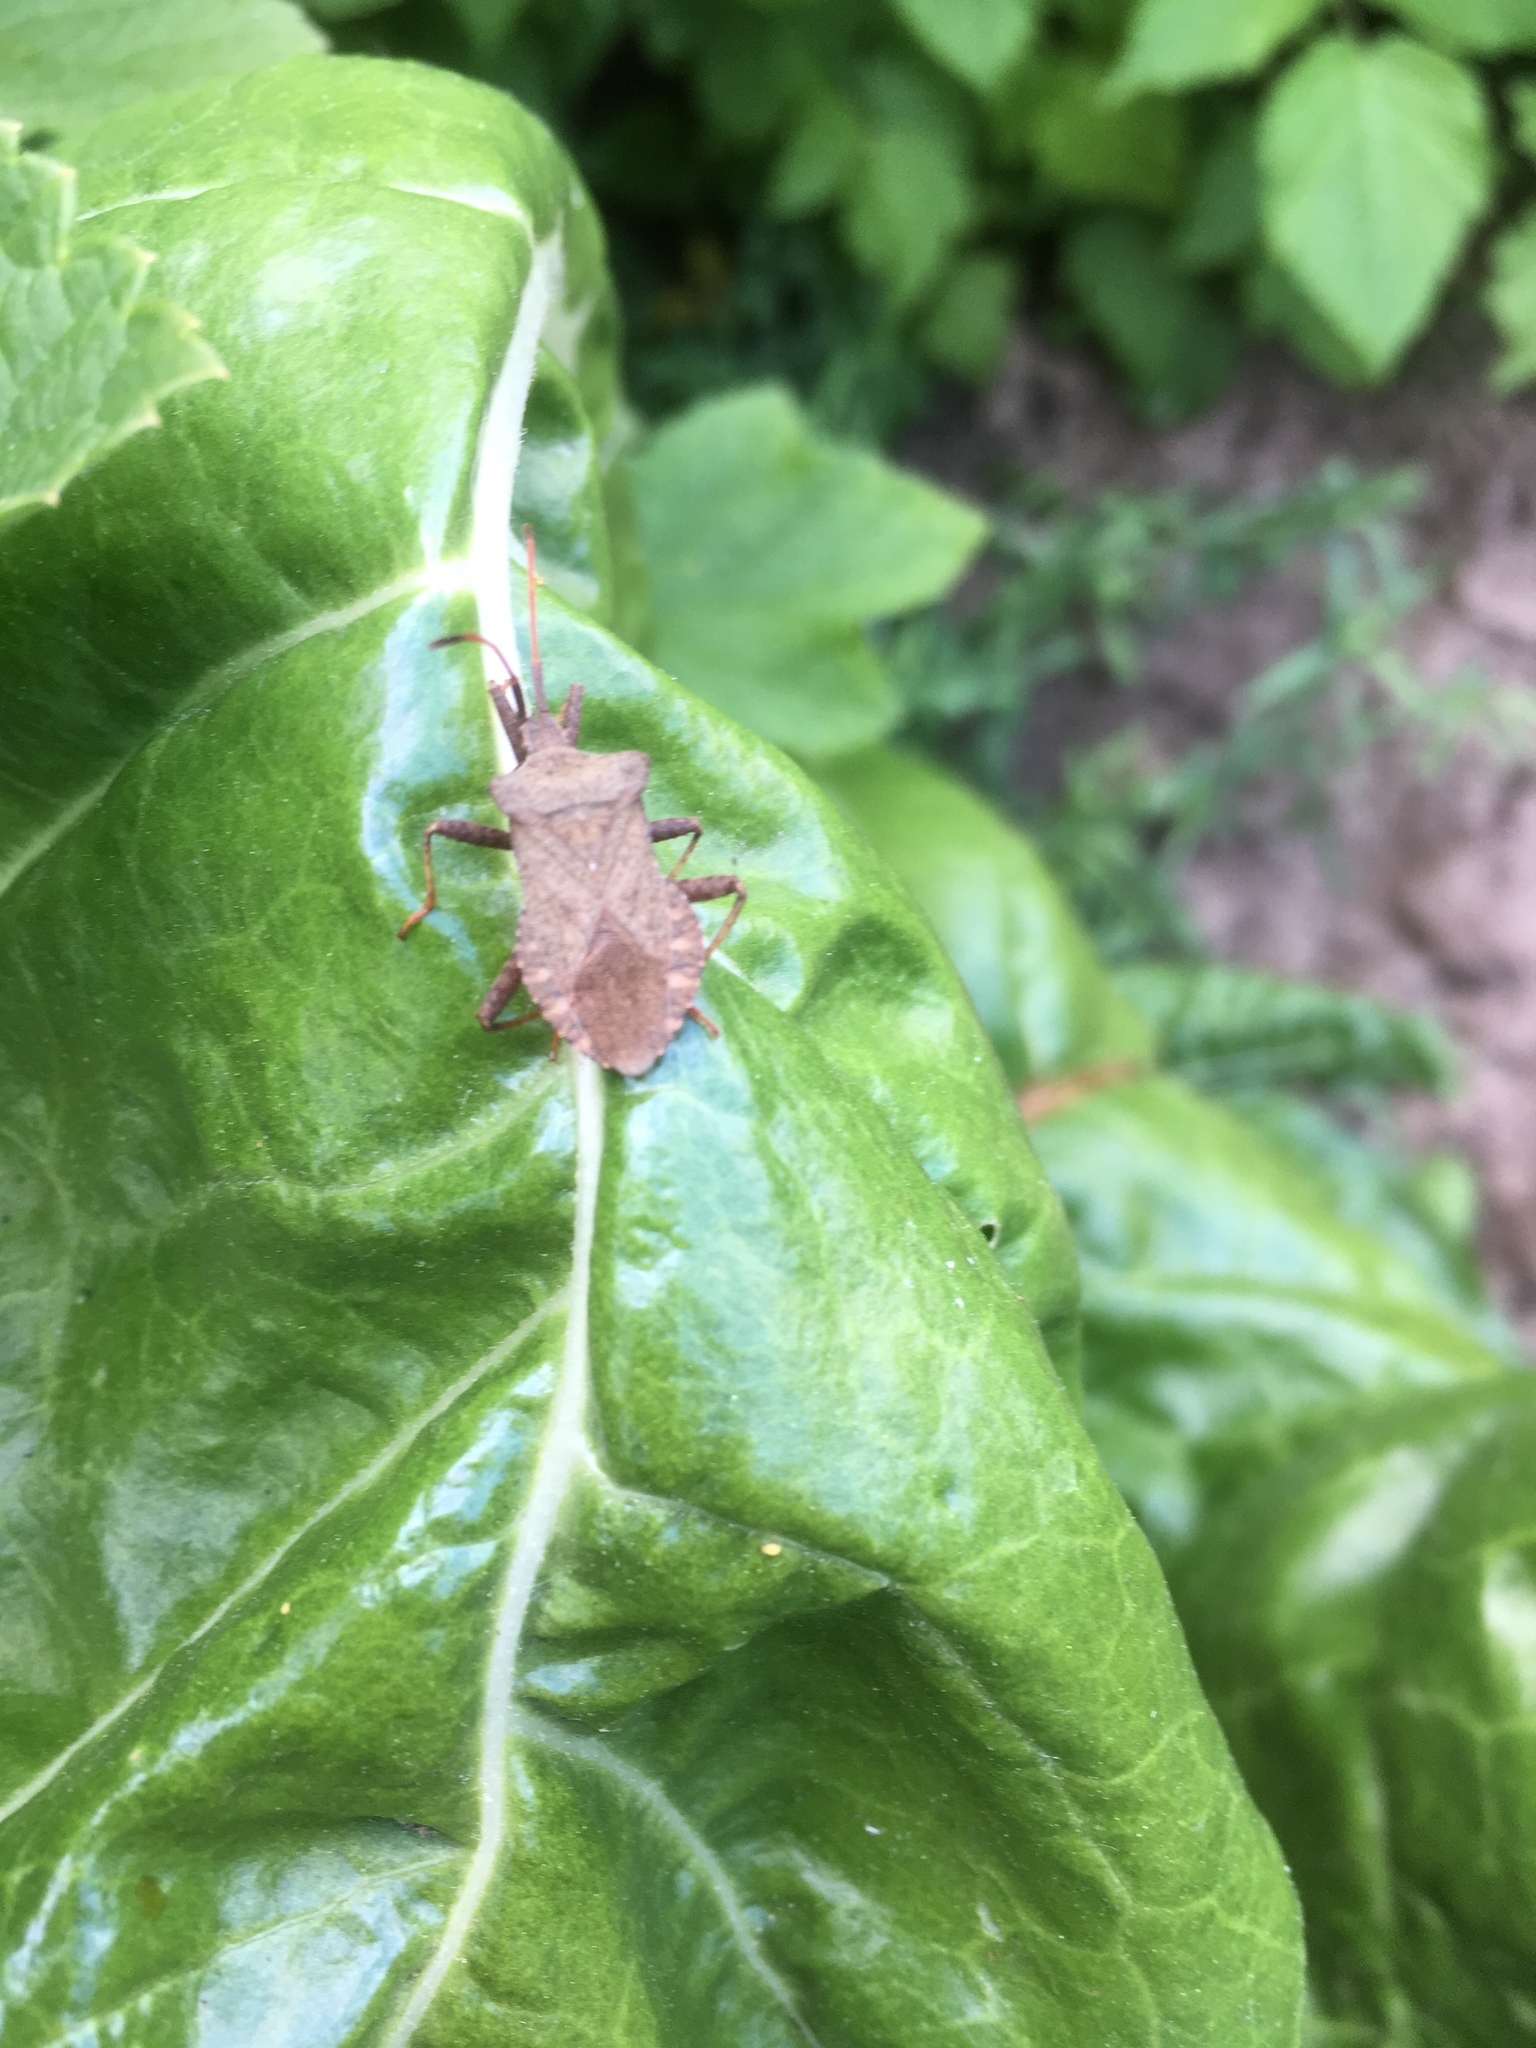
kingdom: Animalia
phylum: Arthropoda
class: Insecta
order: Hemiptera
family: Coreidae
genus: Coreus
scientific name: Coreus marginatus
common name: Dock bug
